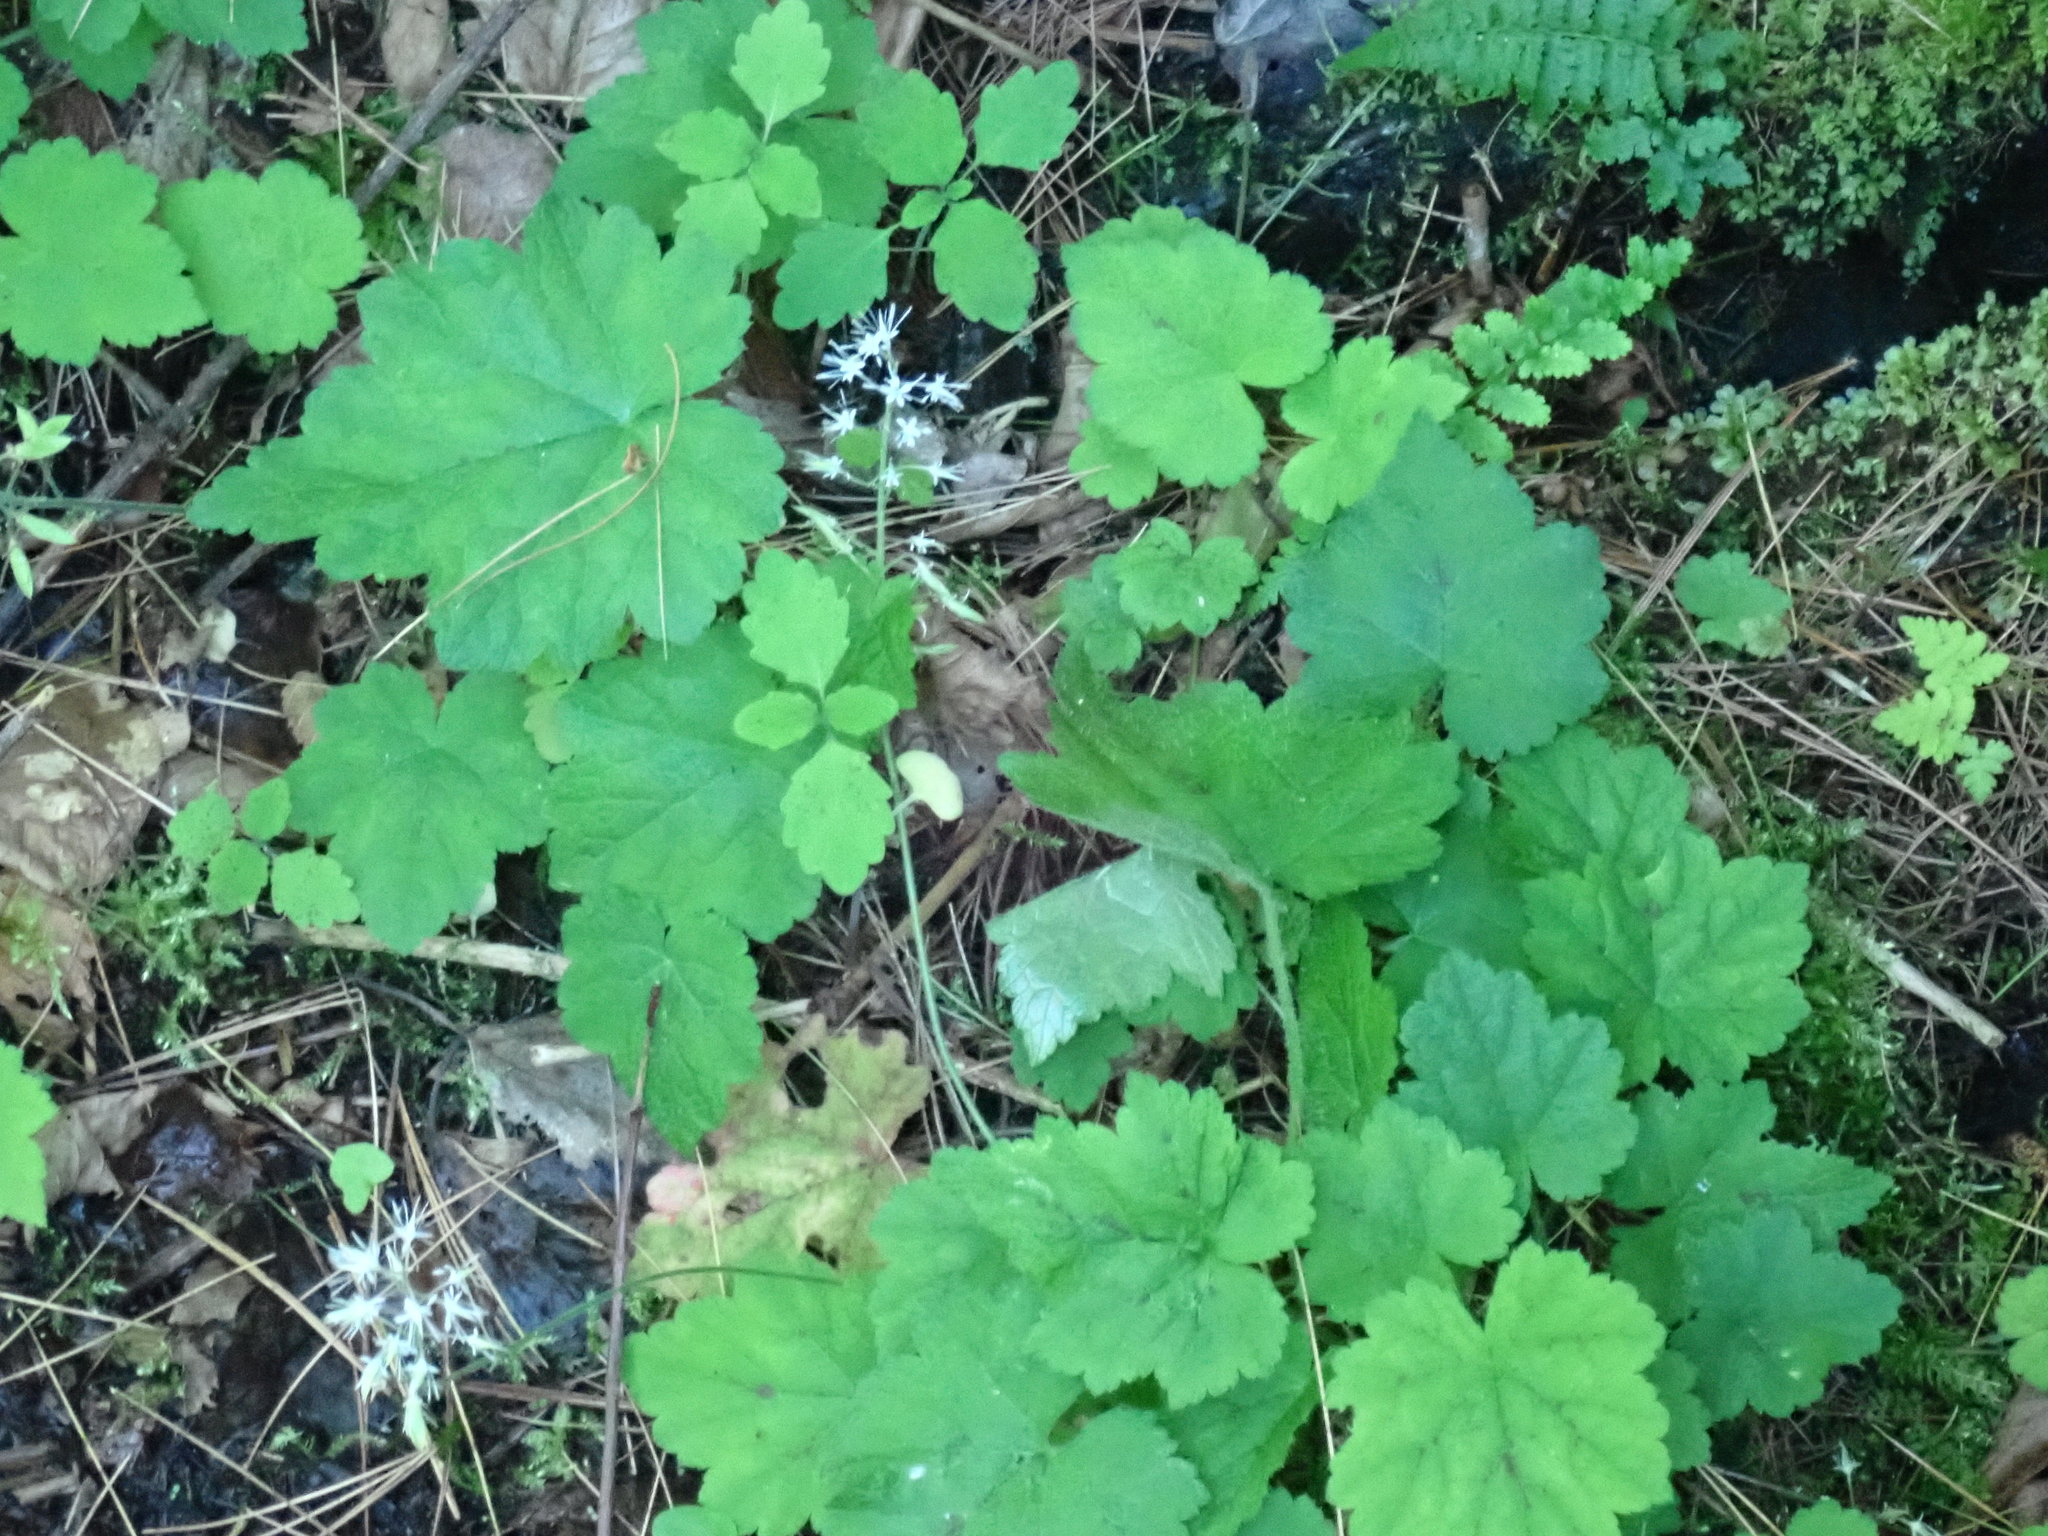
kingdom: Plantae
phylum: Tracheophyta
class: Magnoliopsida
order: Saxifragales
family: Saxifragaceae
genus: Tiarella
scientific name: Tiarella stolonifera
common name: Stoloniferous foamflower
